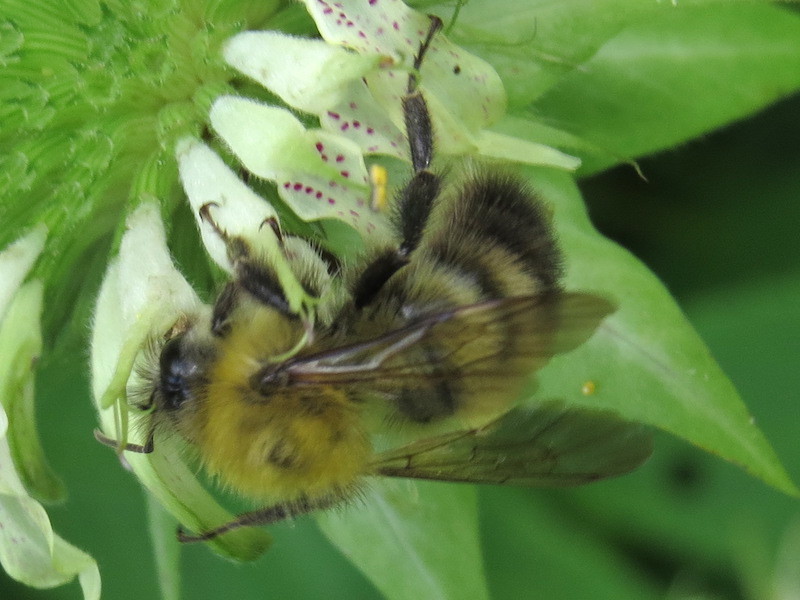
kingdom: Animalia
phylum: Arthropoda
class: Insecta
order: Hymenoptera
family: Apidae
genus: Bombus
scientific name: Bombus perplexus
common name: Confusing bumble bee
